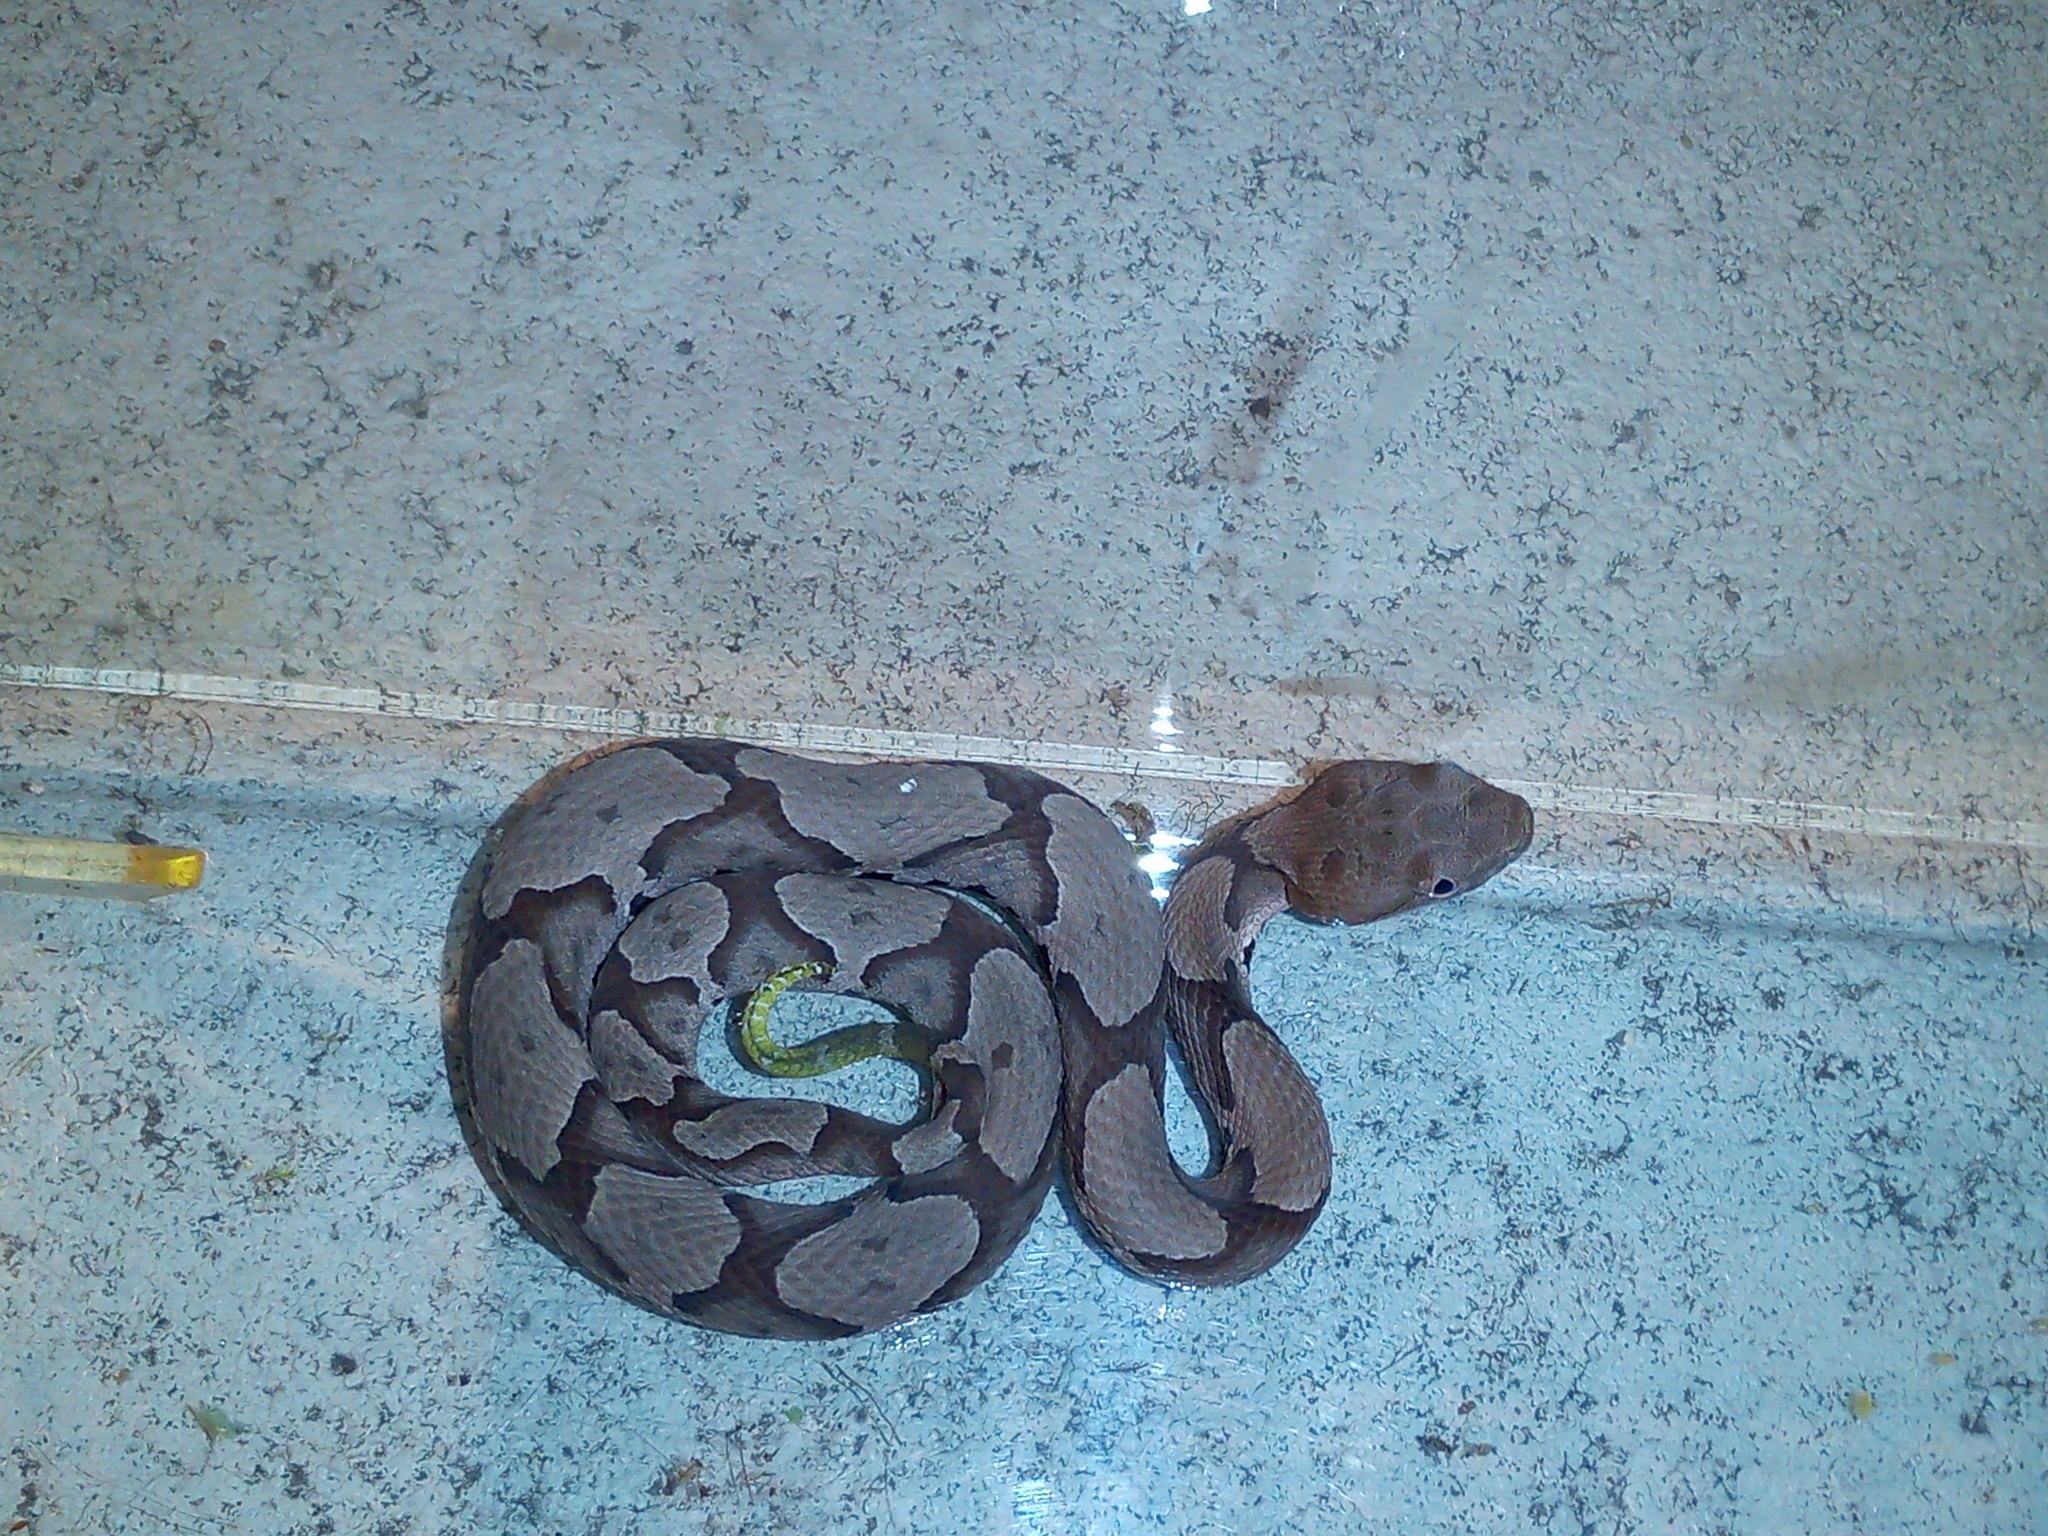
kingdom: Animalia
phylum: Chordata
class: Squamata
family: Viperidae
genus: Agkistrodon
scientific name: Agkistrodon contortrix
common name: Northern copperhead
